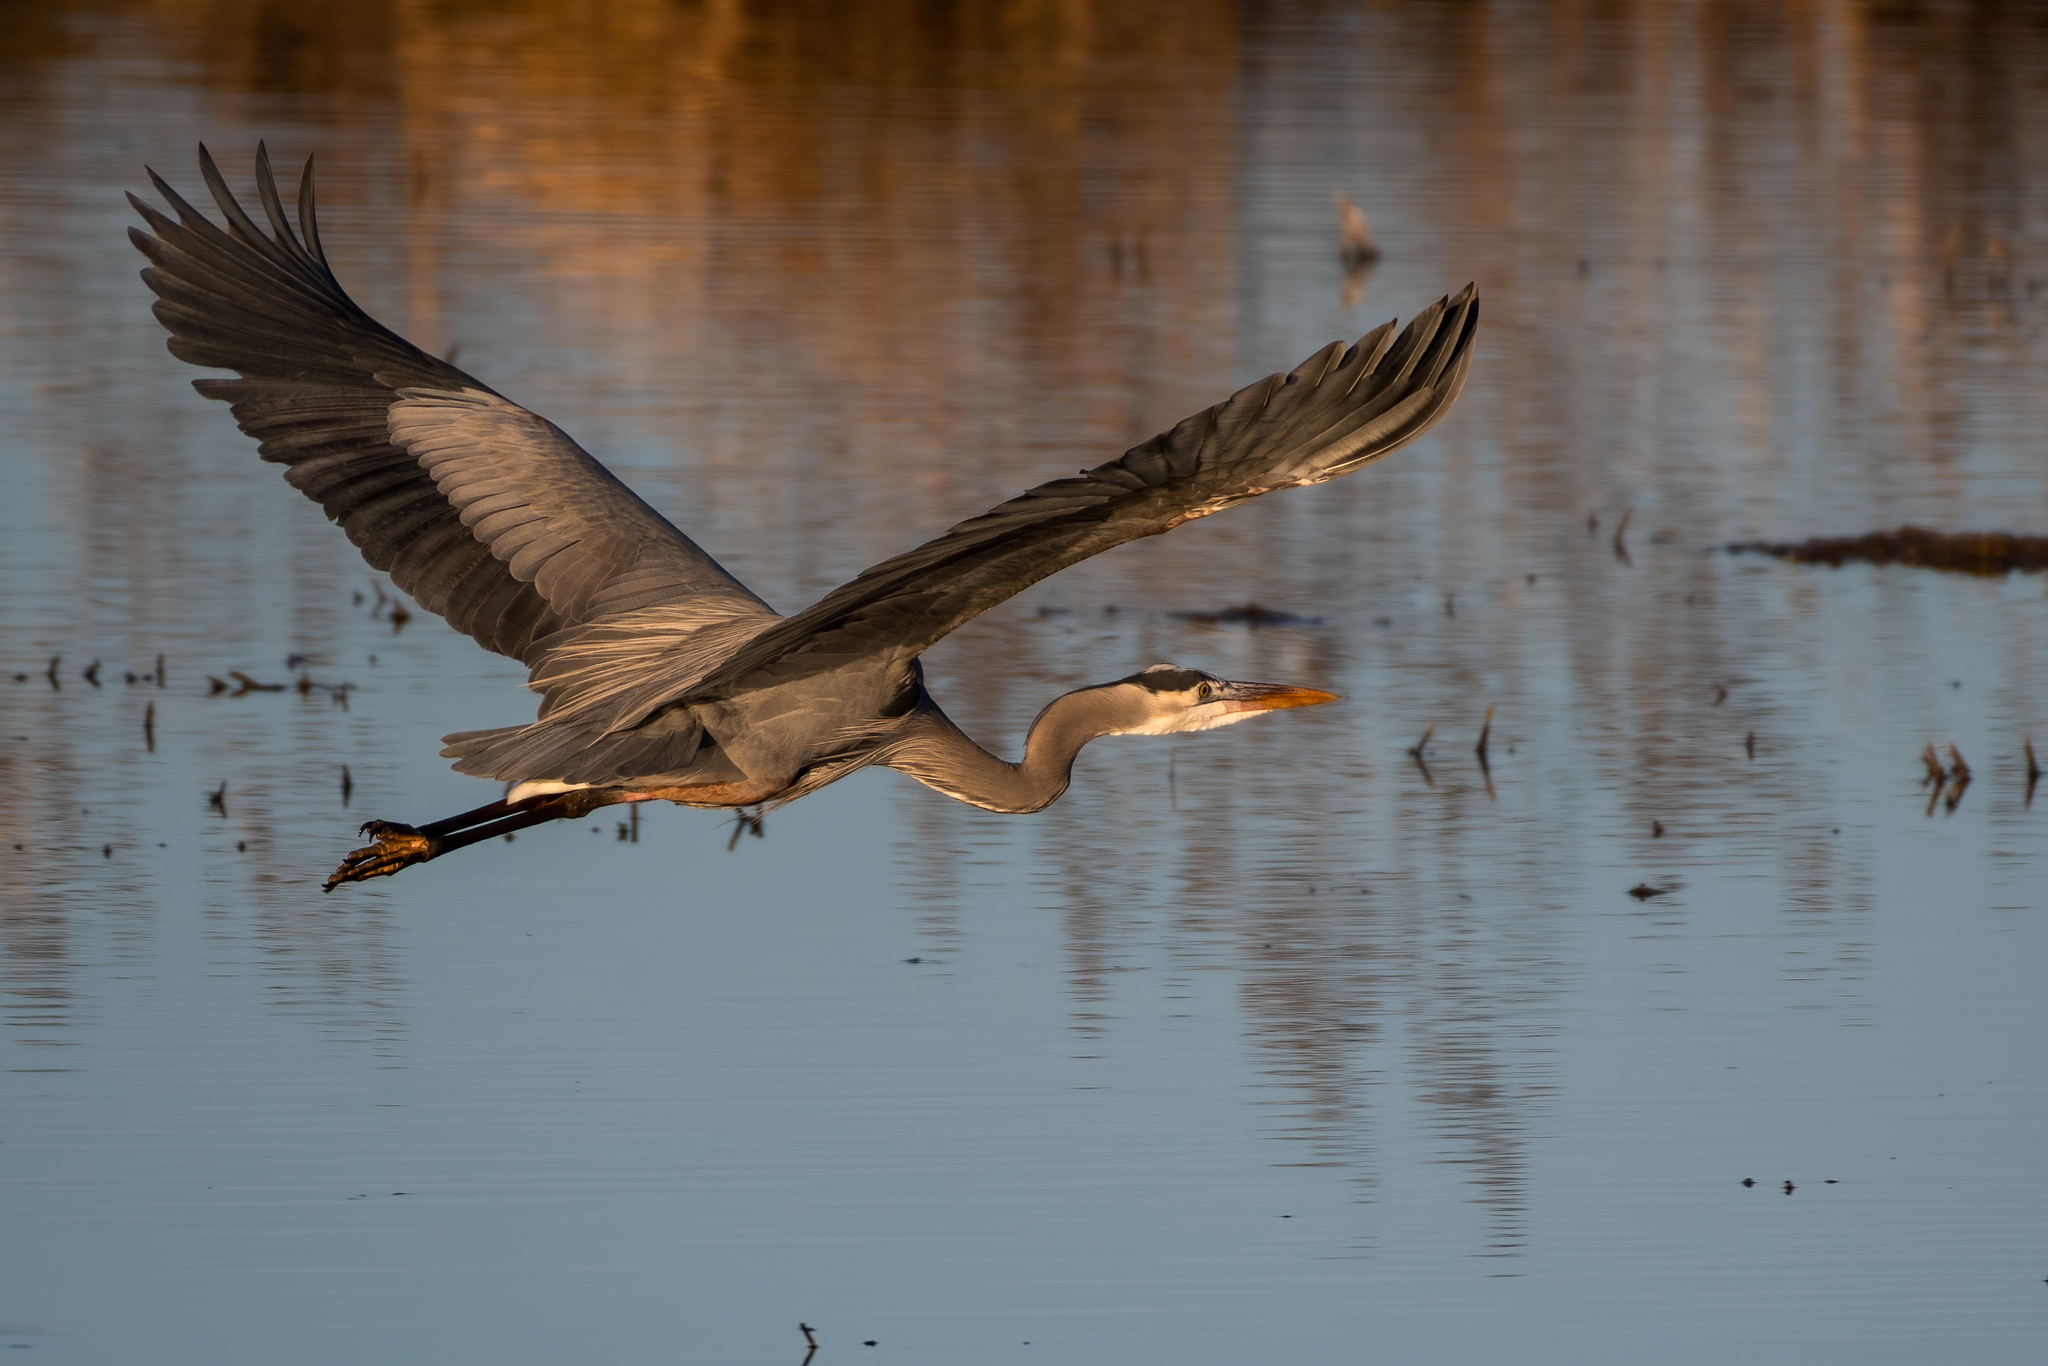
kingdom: Animalia
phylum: Chordata
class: Aves
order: Pelecaniformes
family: Ardeidae
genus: Ardea
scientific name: Ardea herodias
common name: Great blue heron
